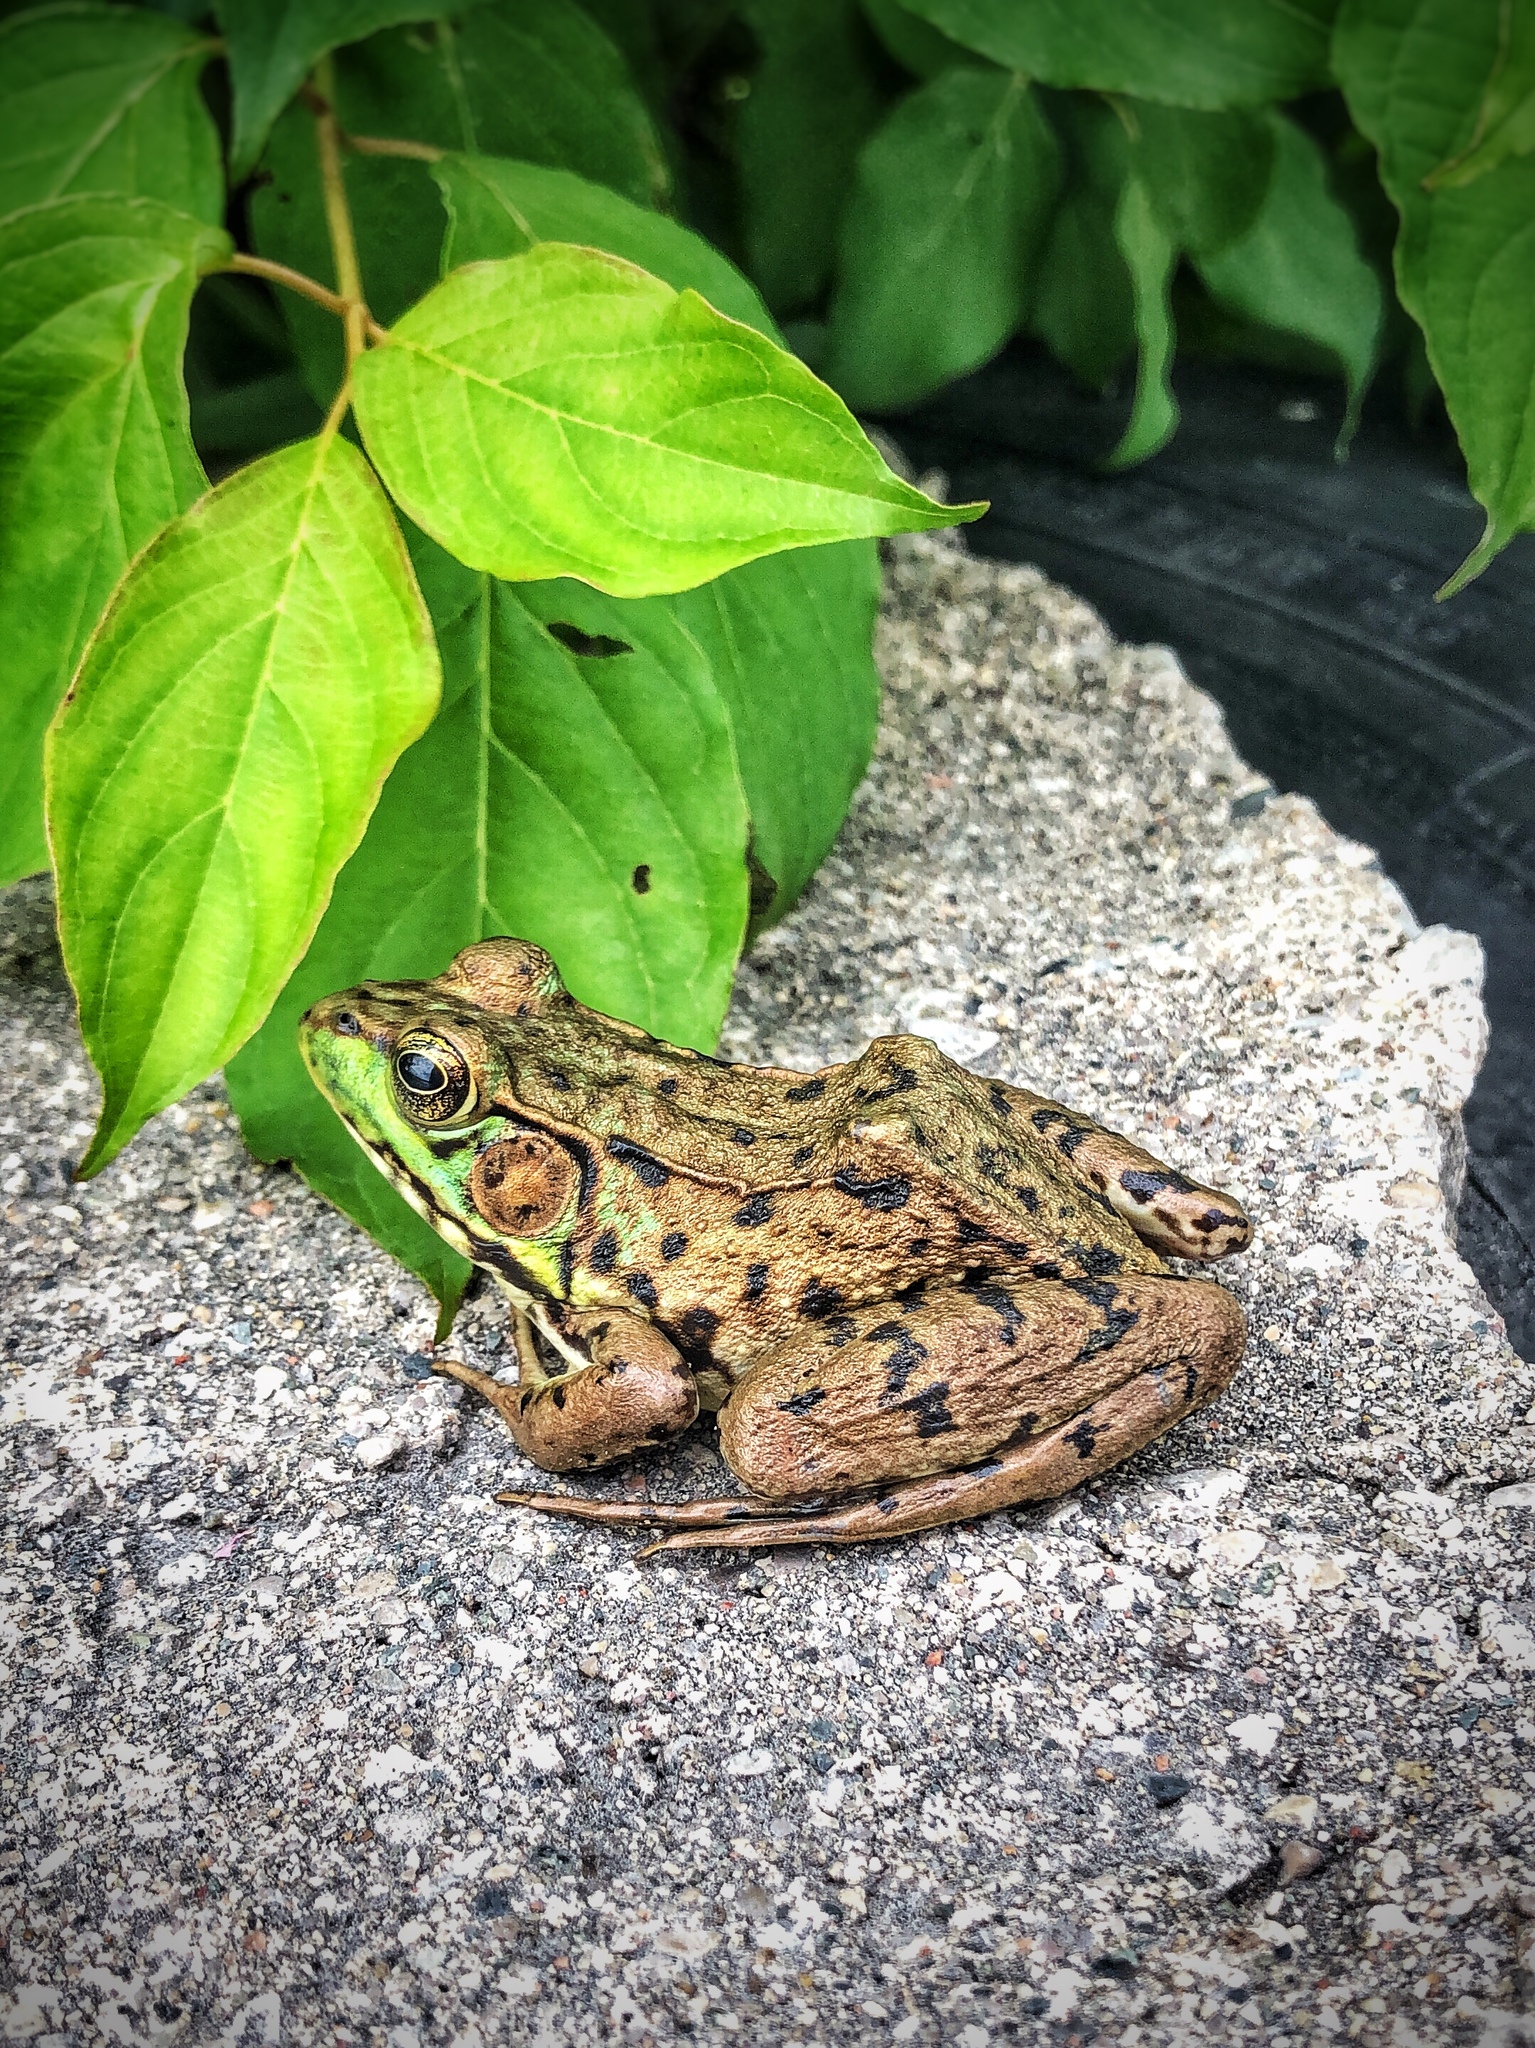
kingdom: Animalia
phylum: Chordata
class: Amphibia
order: Anura
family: Ranidae
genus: Lithobates
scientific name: Lithobates clamitans
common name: Green frog
